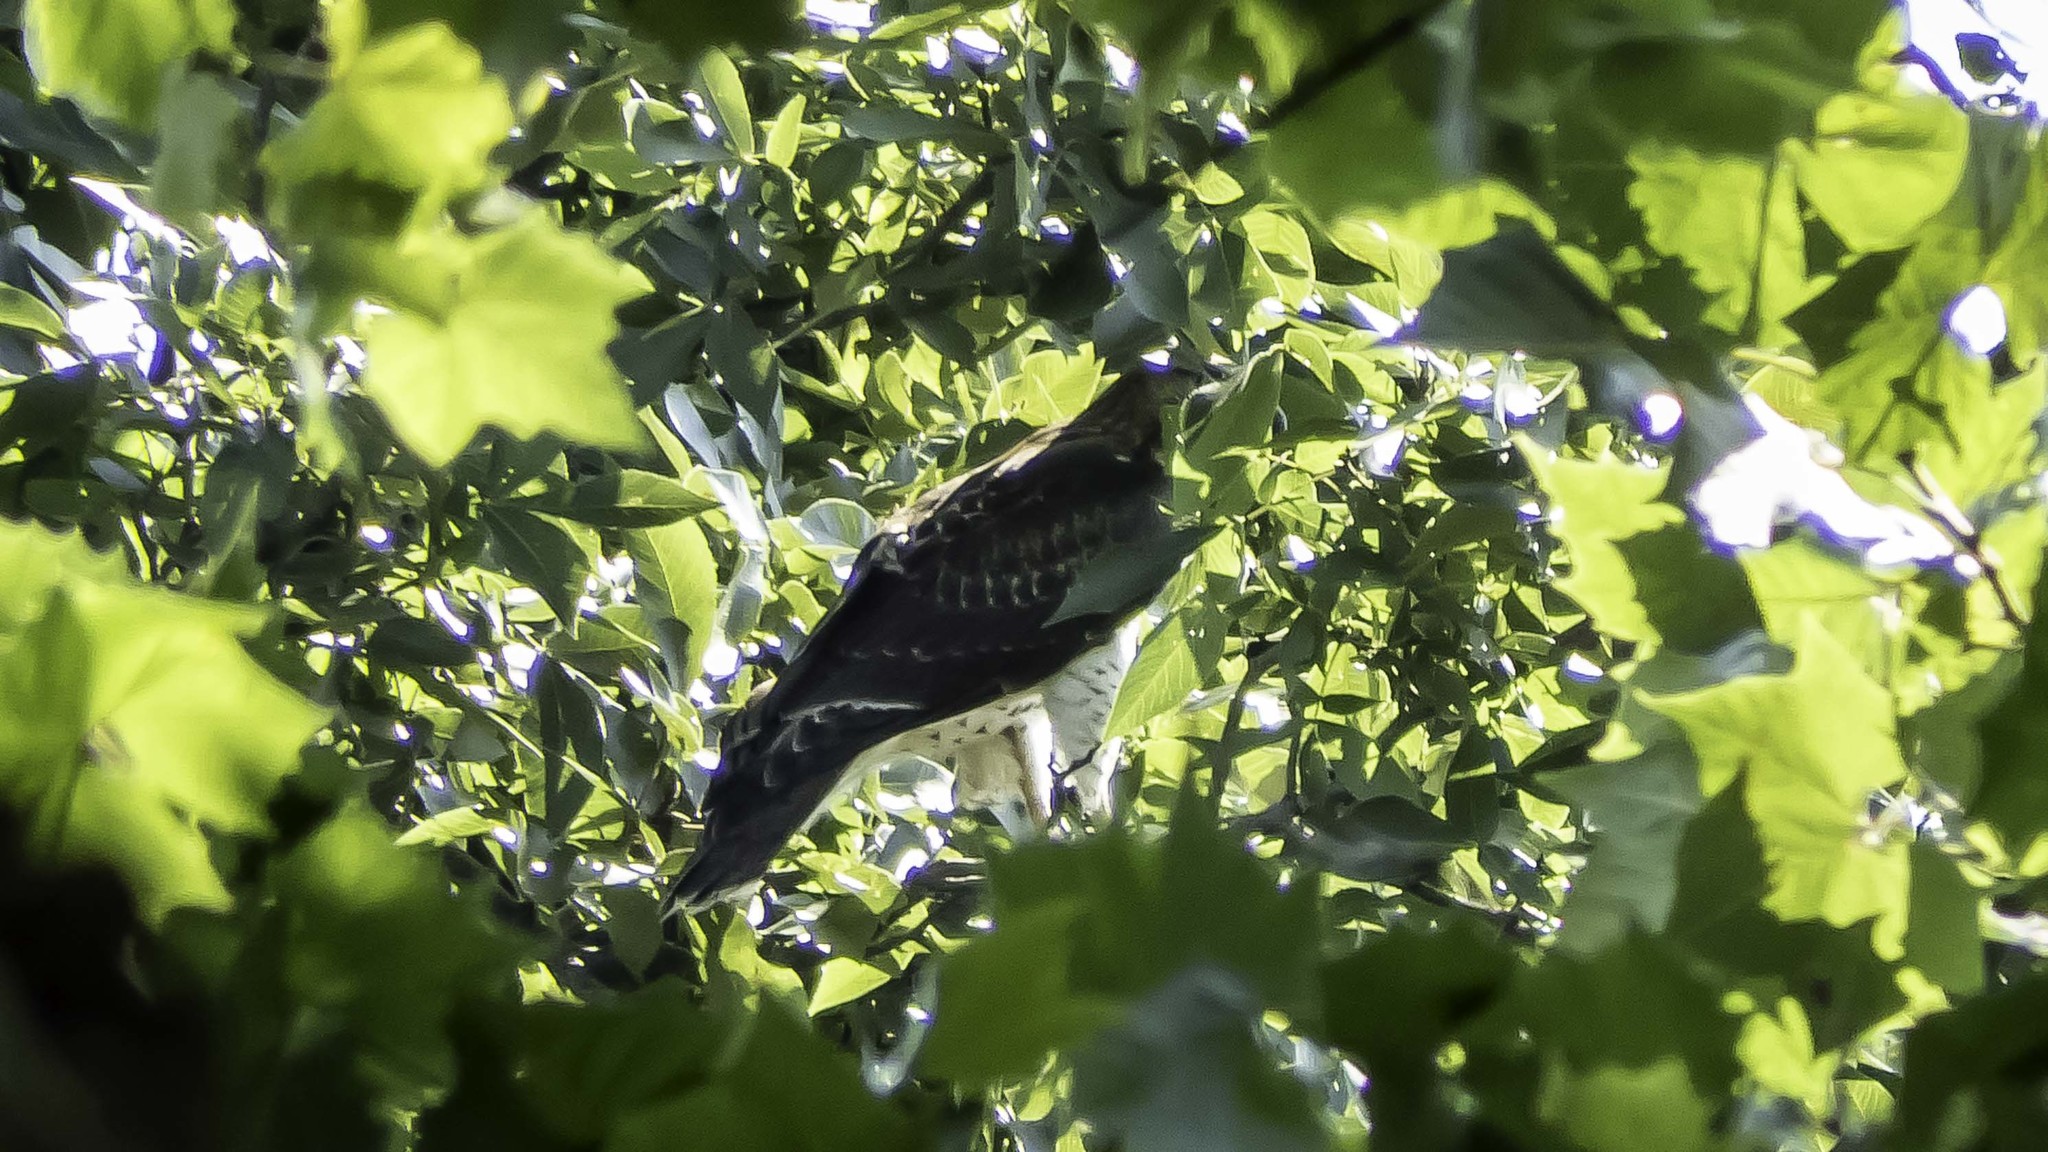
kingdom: Animalia
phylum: Chordata
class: Aves
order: Accipitriformes
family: Accipitridae
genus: Buteo
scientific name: Buteo jamaicensis
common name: Red-tailed hawk
